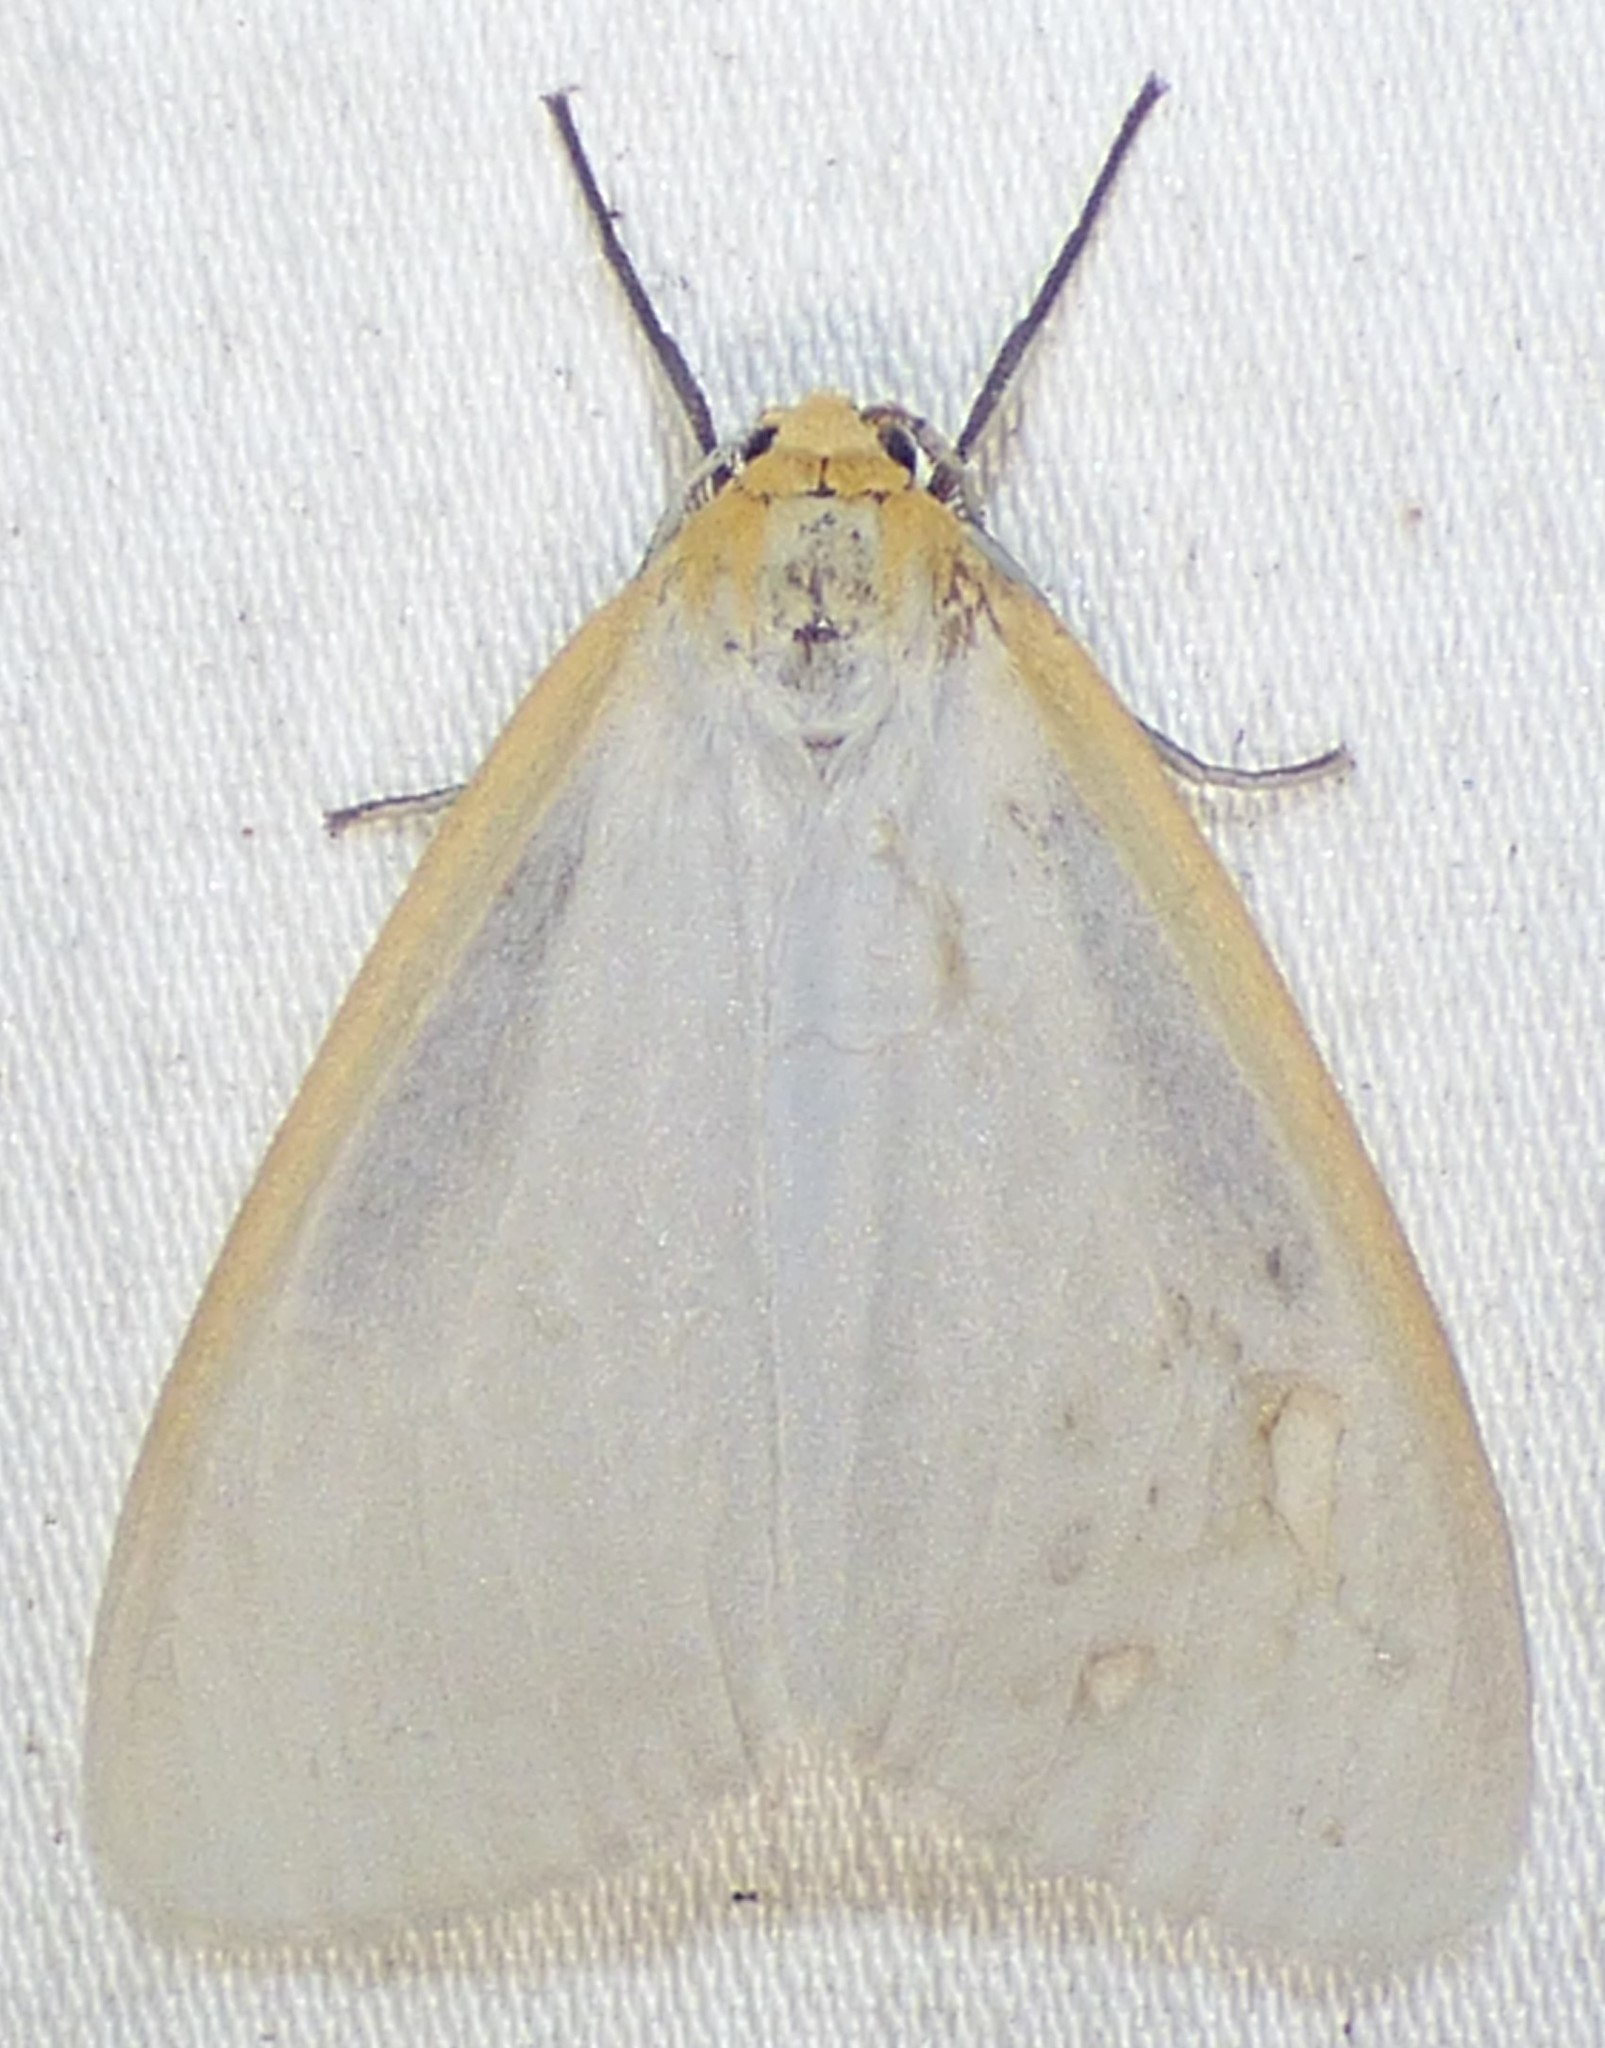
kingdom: Animalia
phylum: Arthropoda
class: Insecta
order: Lepidoptera
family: Erebidae
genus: Cycnia
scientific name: Cycnia tenera
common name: Delicate cycnia moth
